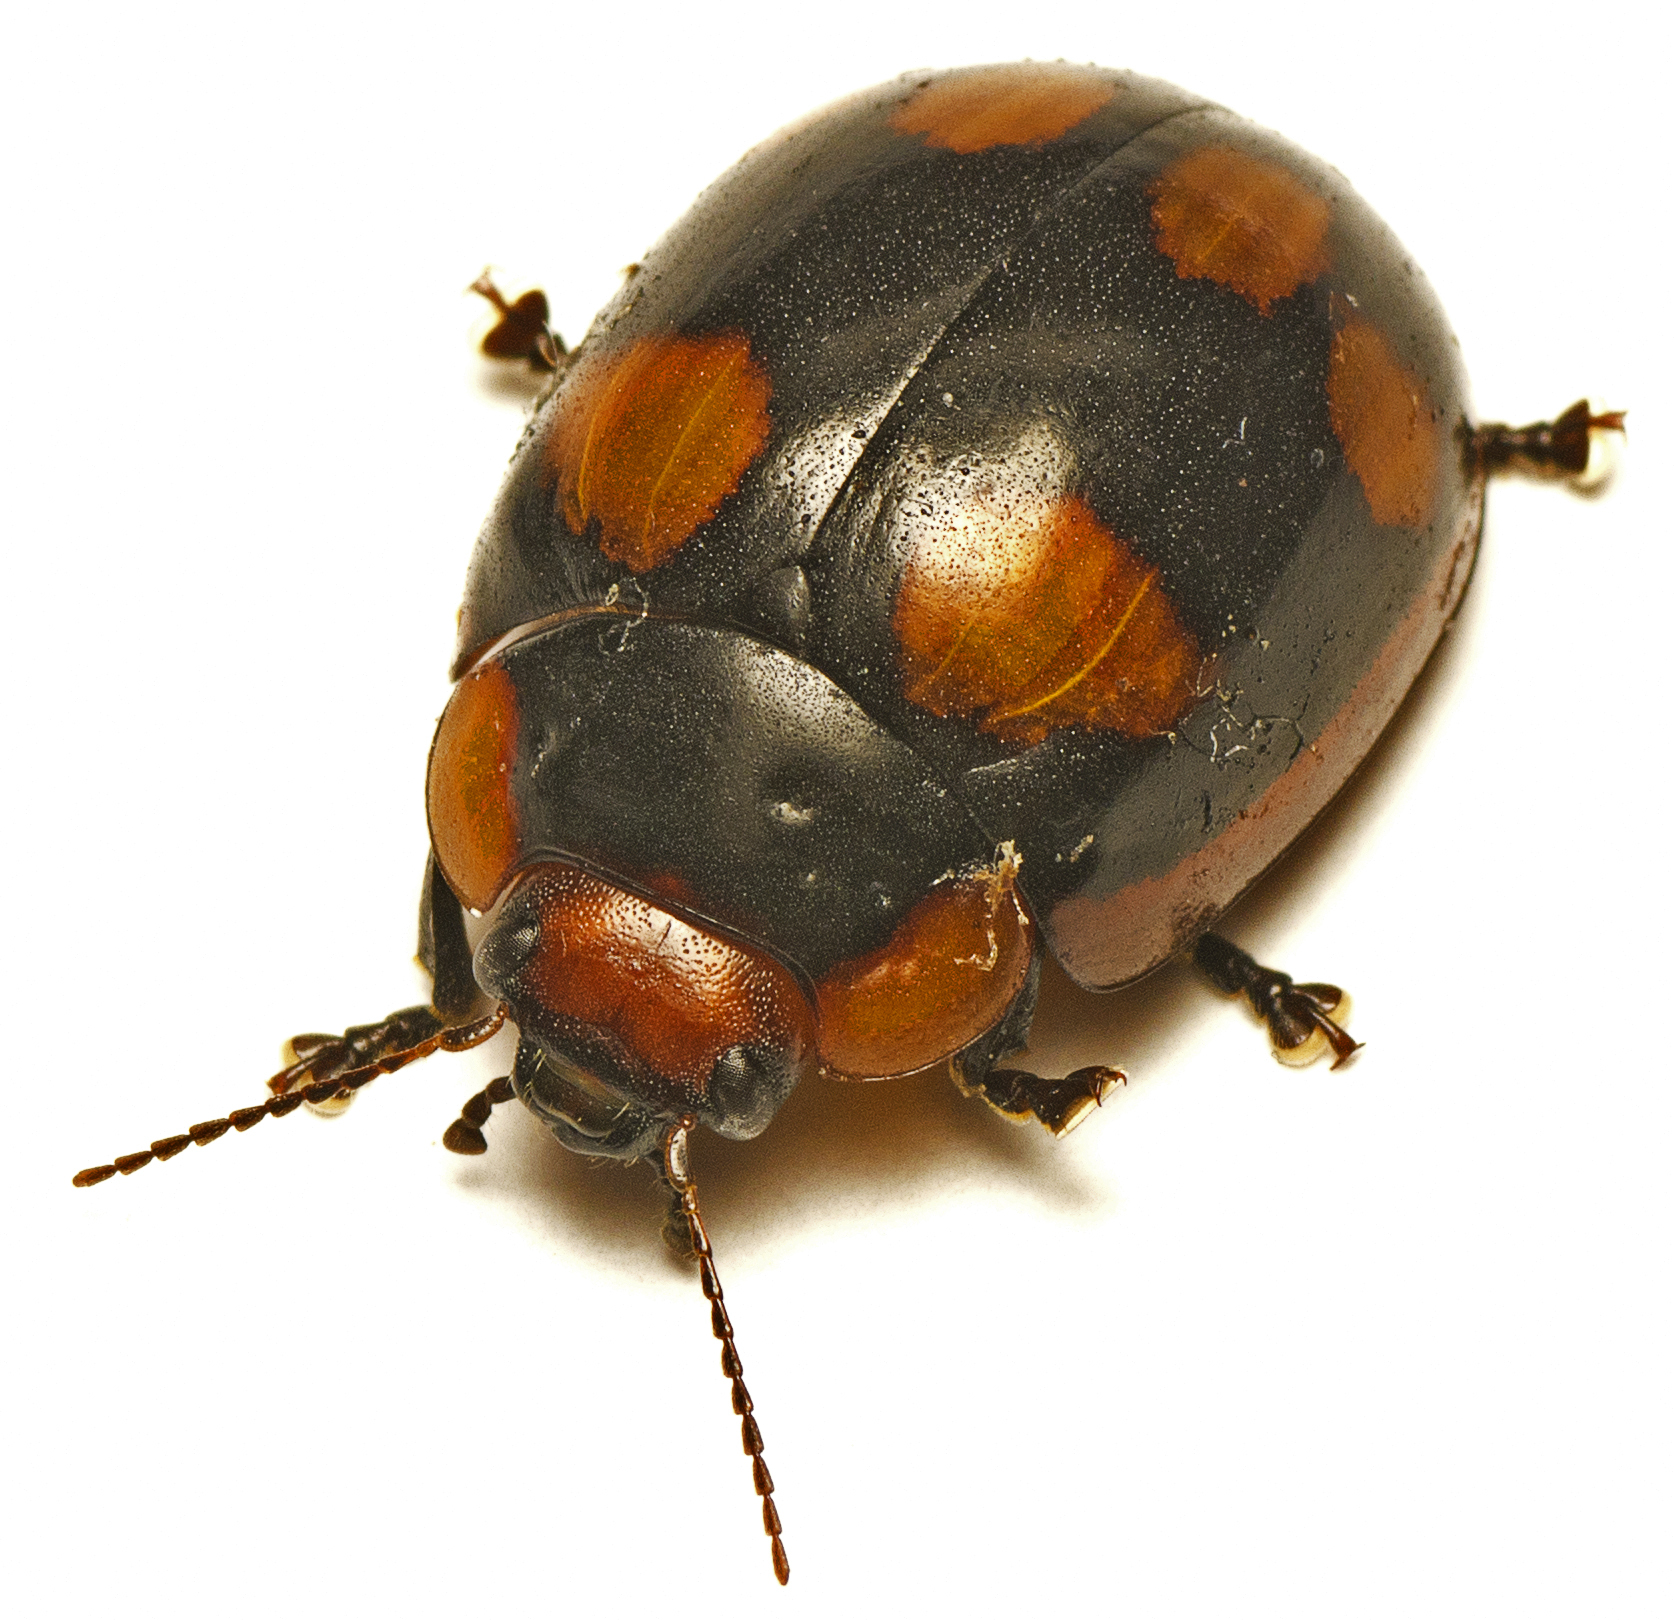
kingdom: Animalia
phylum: Arthropoda
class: Insecta
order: Coleoptera
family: Chrysomelidae
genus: Paropsisterna
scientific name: Paropsisterna beata
